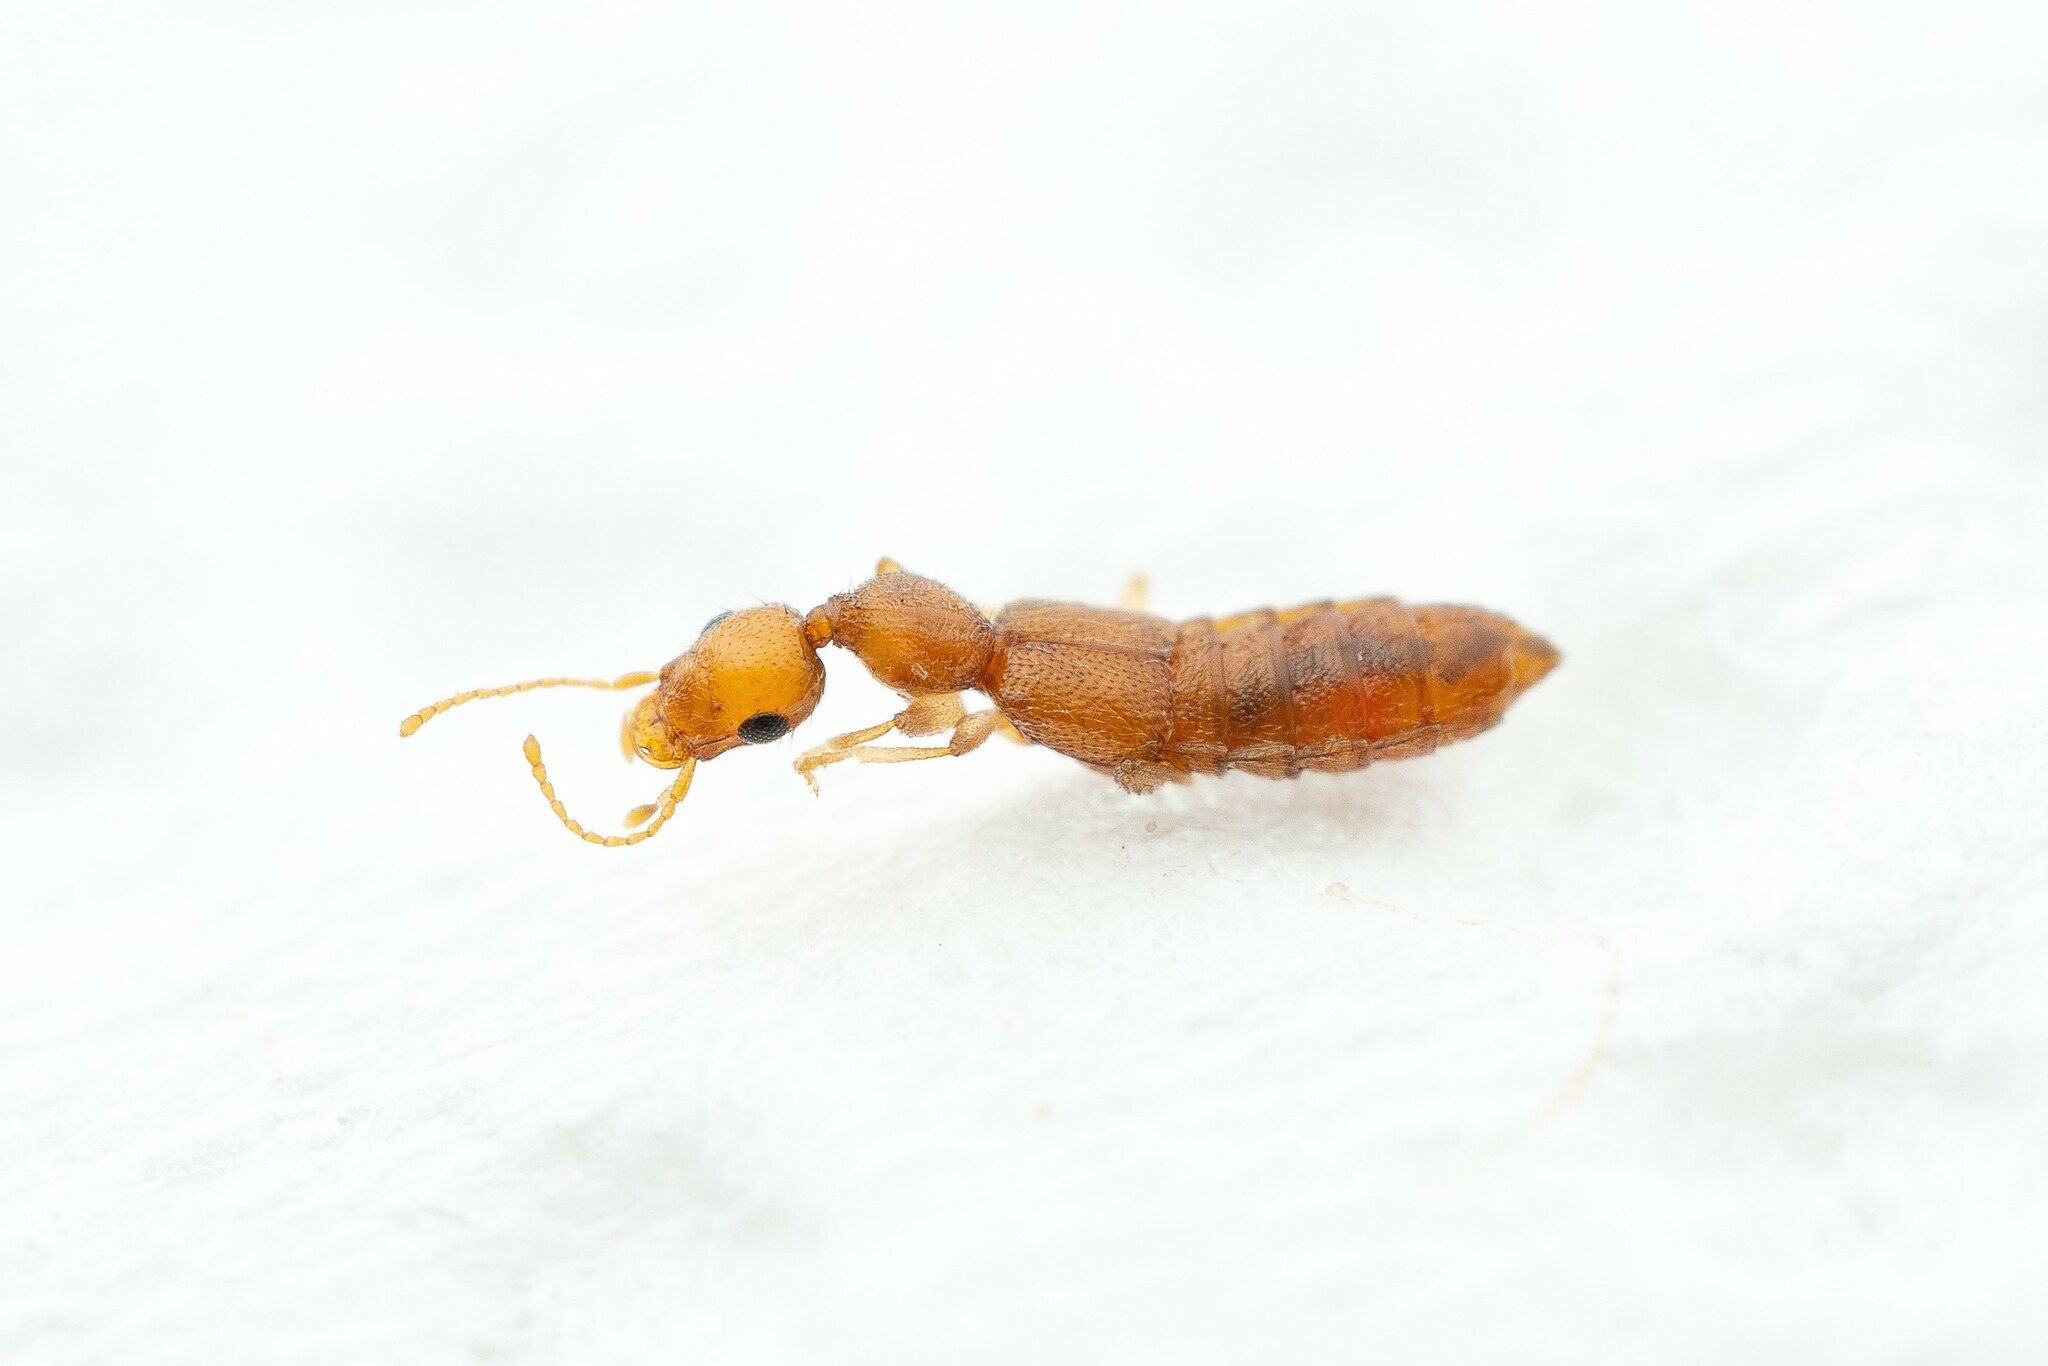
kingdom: Animalia
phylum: Arthropoda
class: Insecta
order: Coleoptera
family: Staphylinidae
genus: Stamnoderus
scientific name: Stamnoderus
